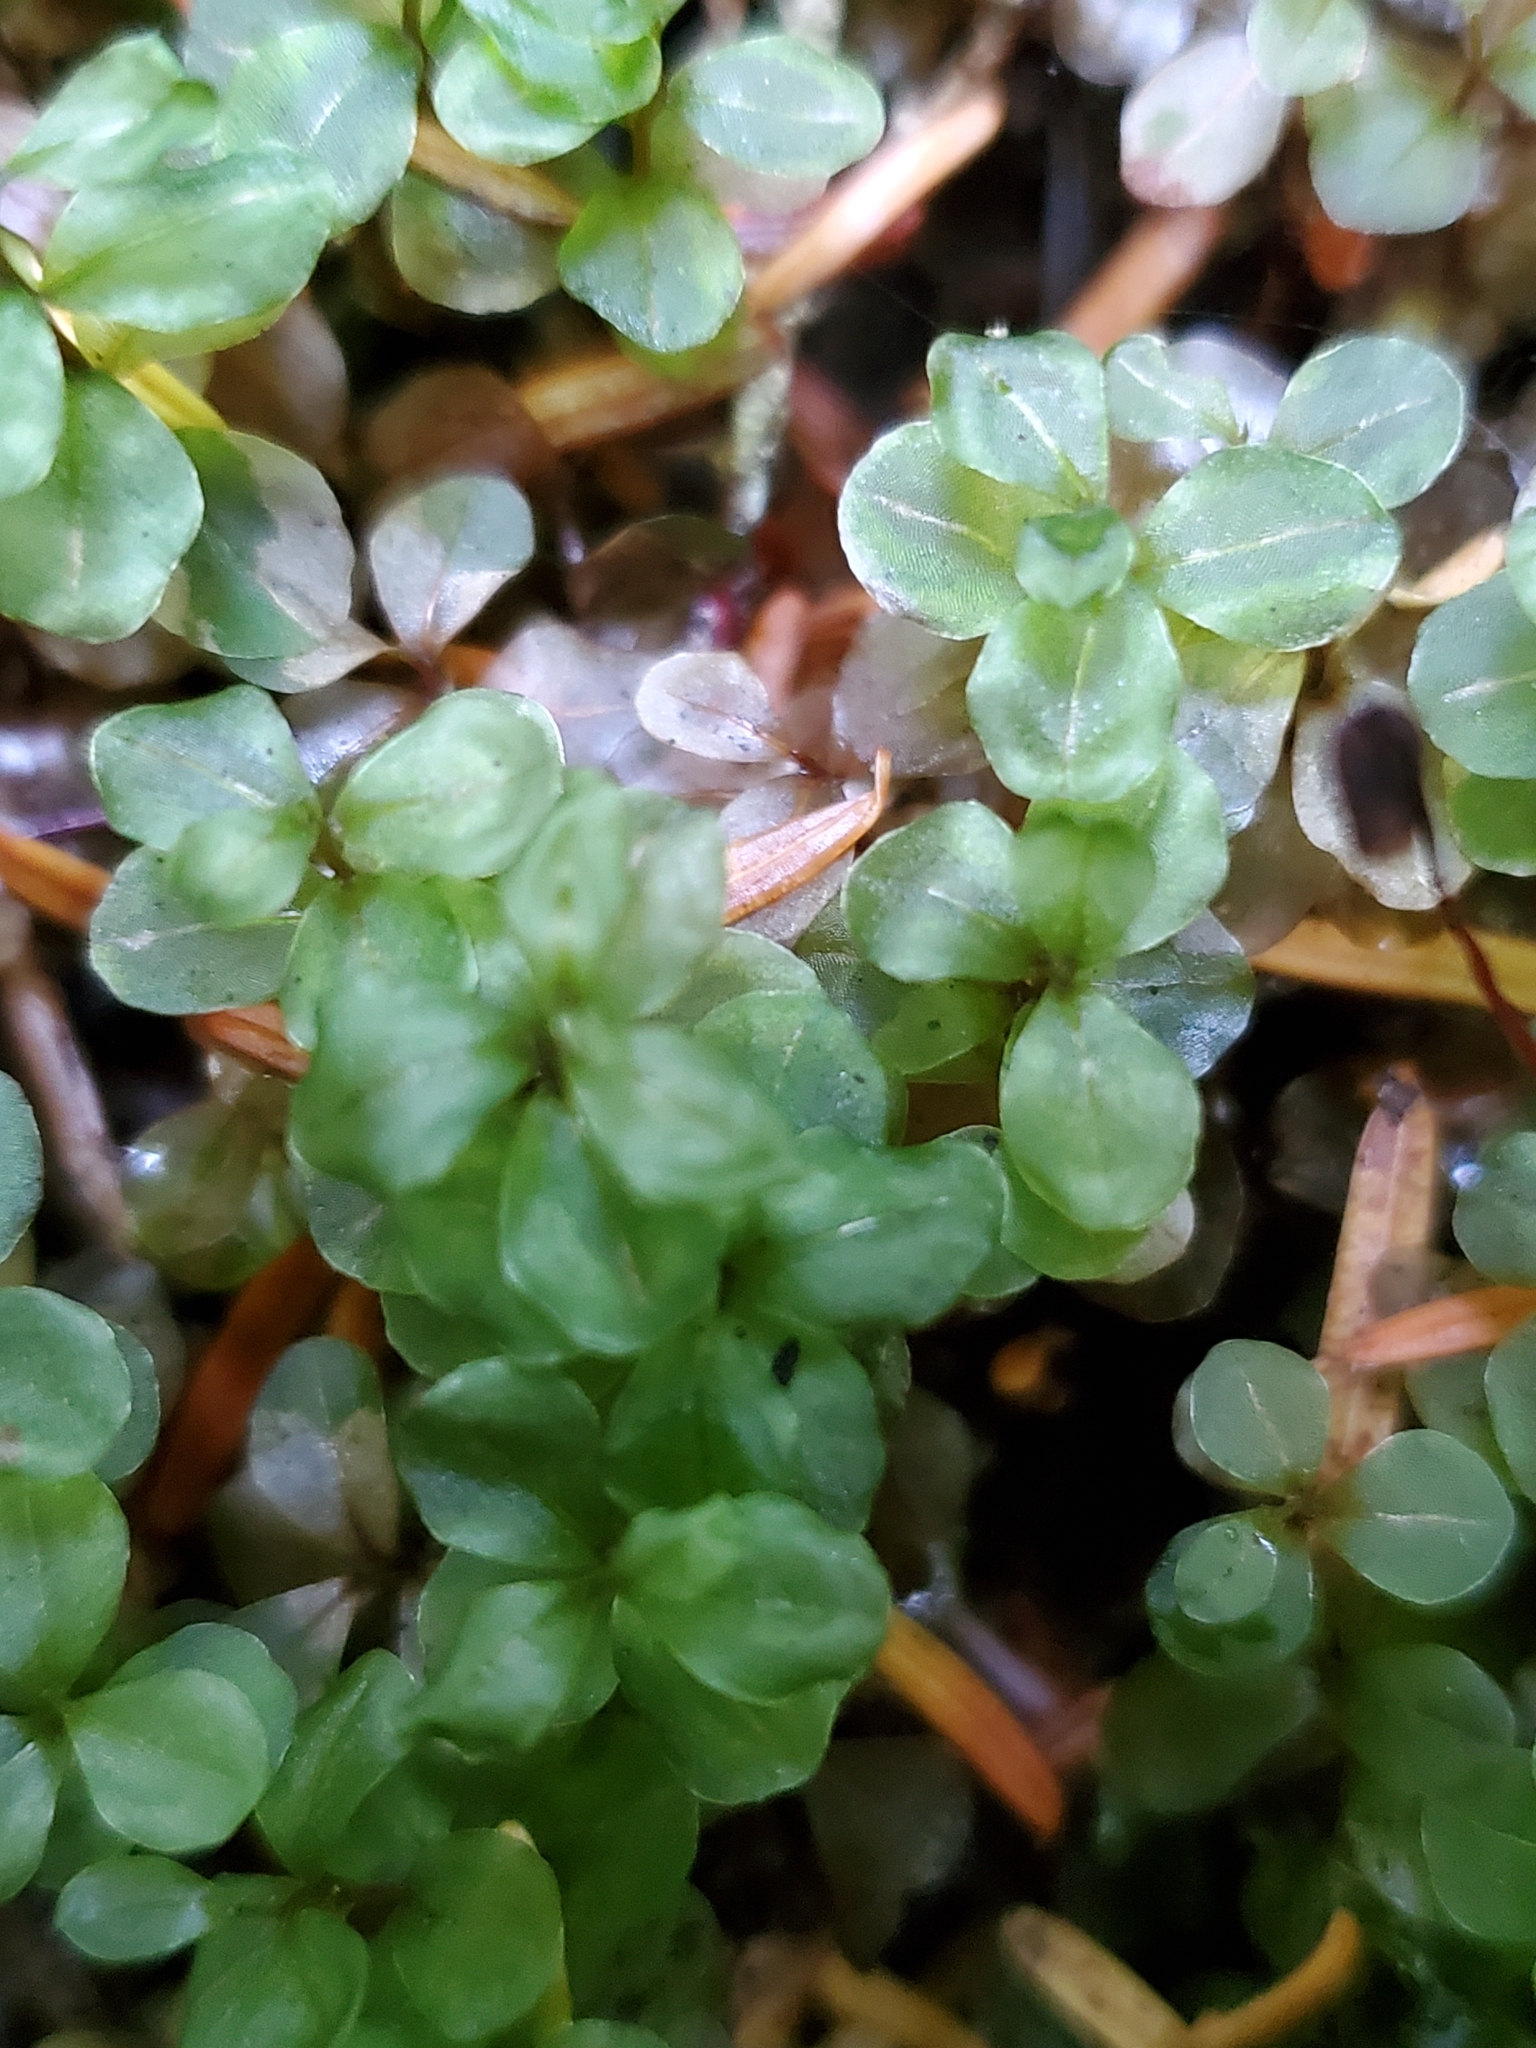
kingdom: Plantae
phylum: Bryophyta
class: Bryopsida
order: Bryales
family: Mniaceae
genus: Rhizomnium
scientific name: Rhizomnium glabrescens
